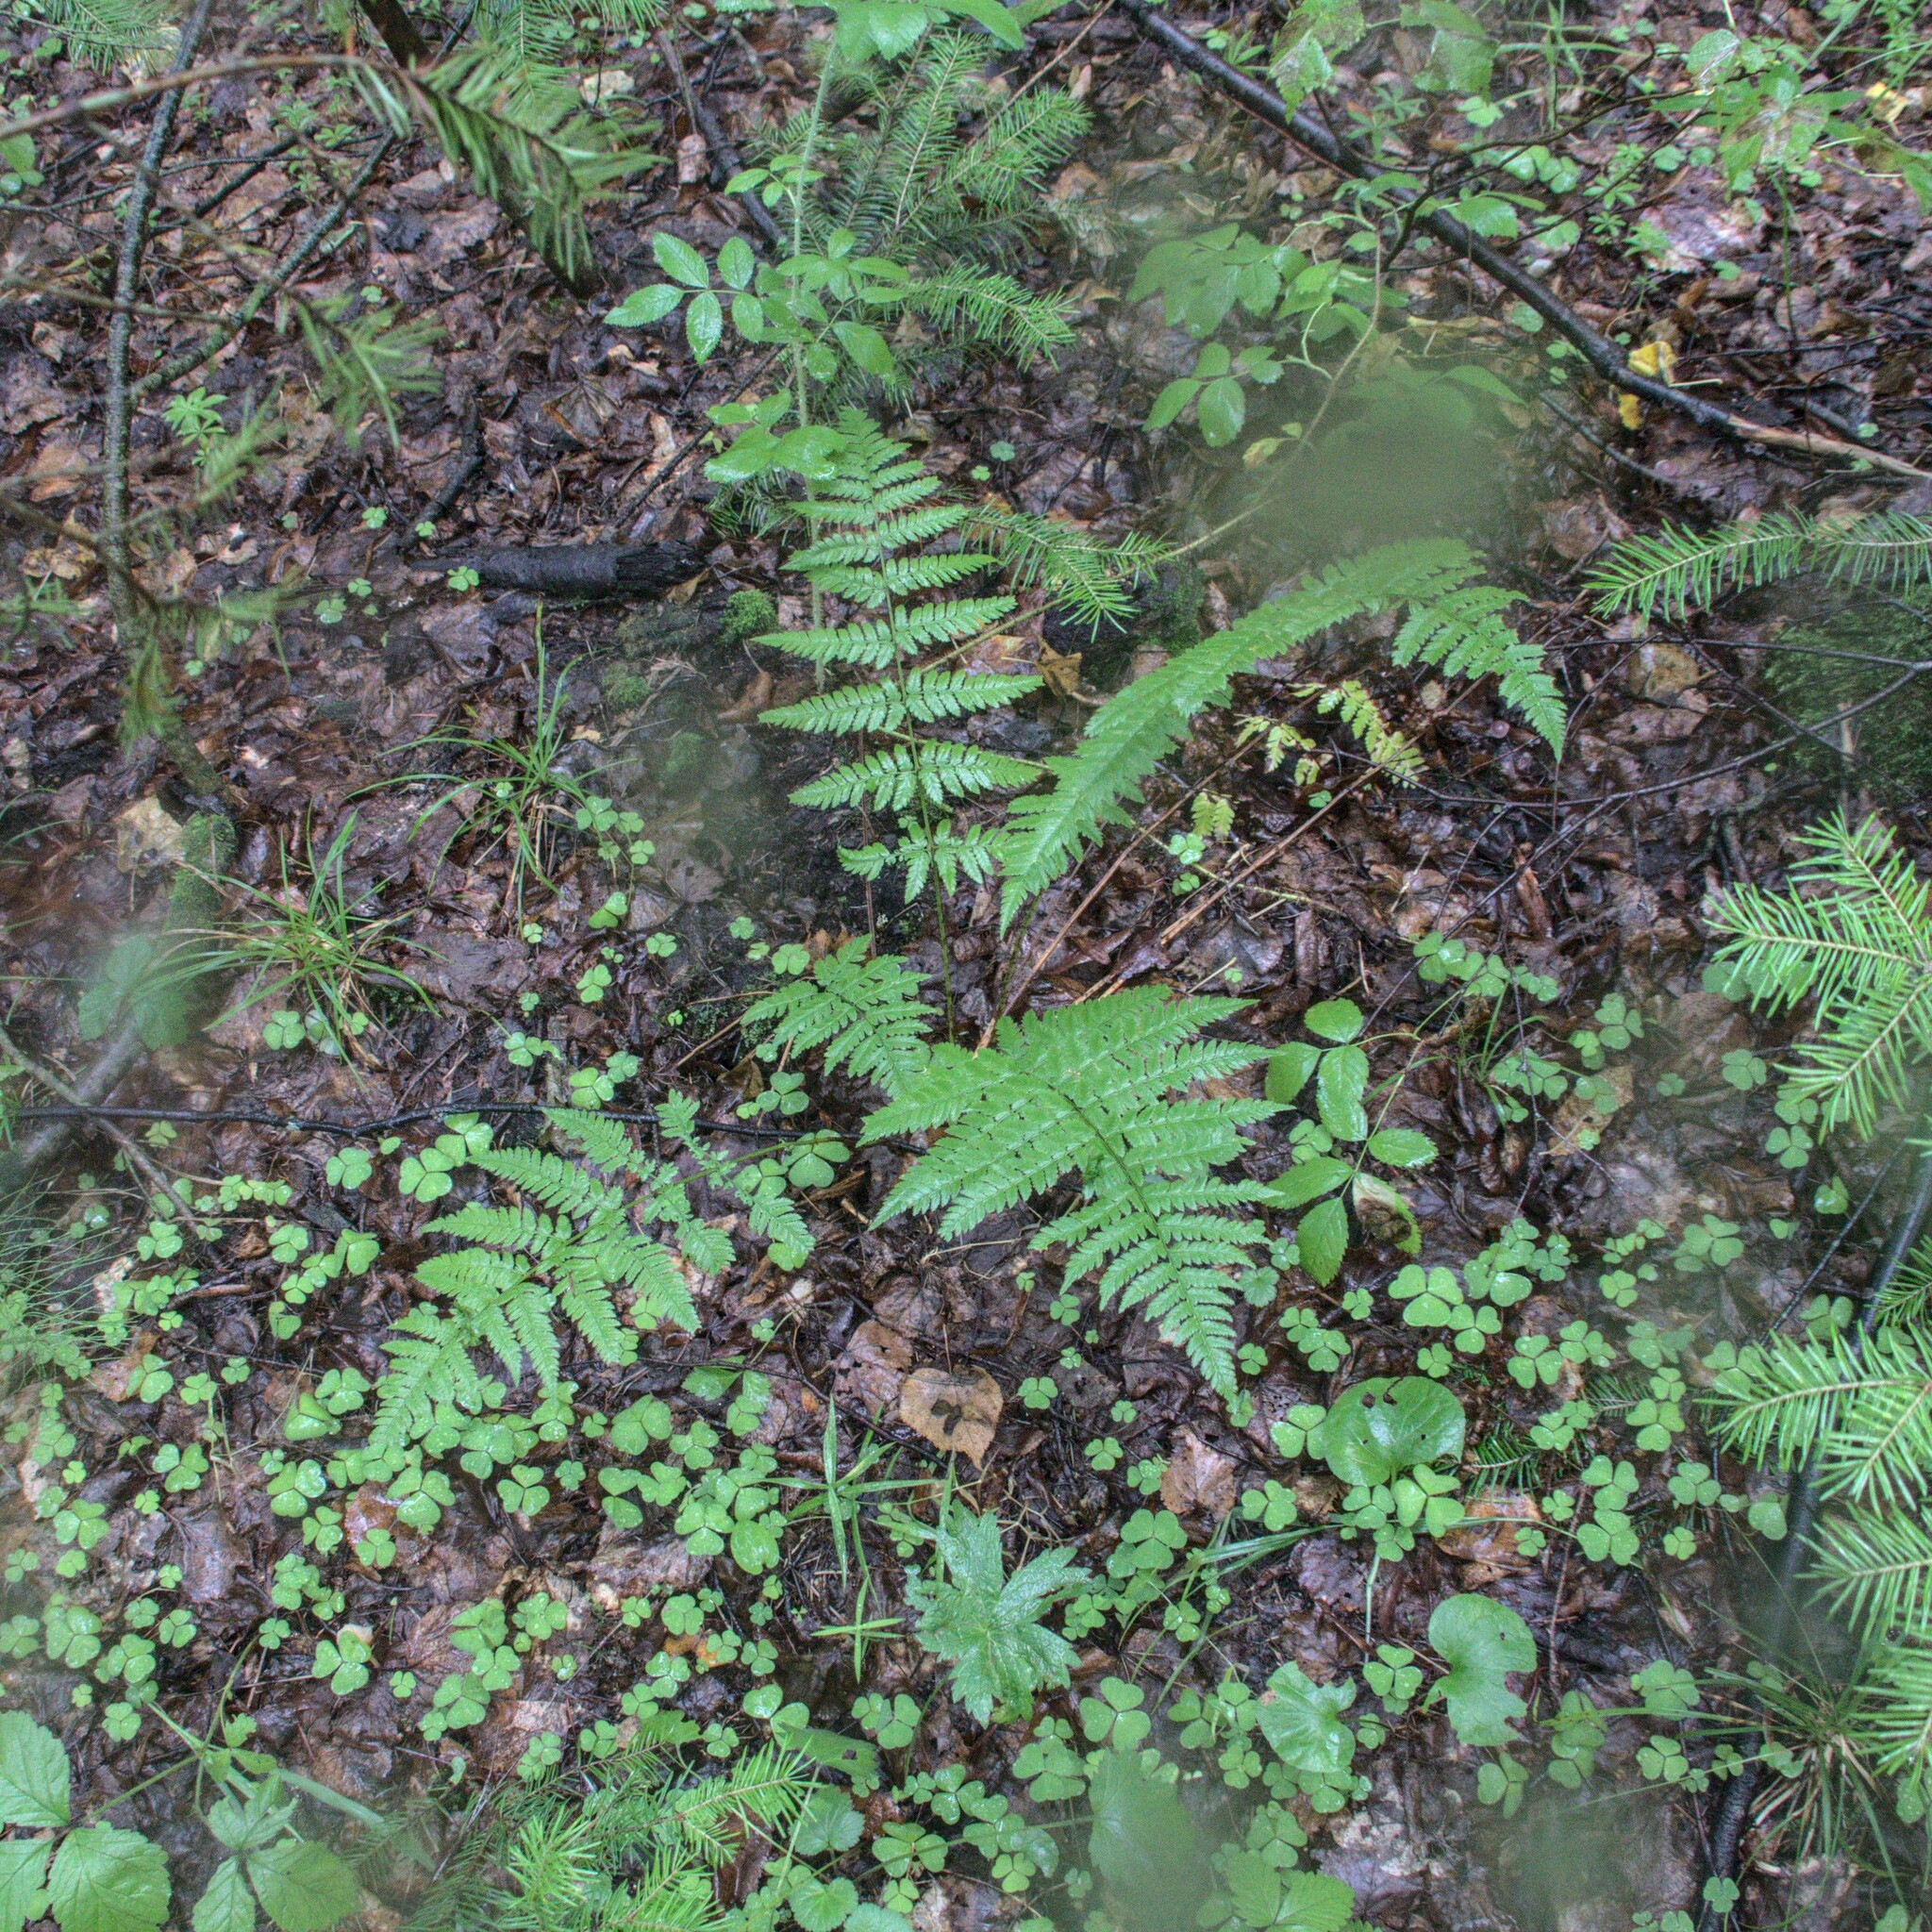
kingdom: Plantae
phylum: Tracheophyta
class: Polypodiopsida
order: Polypodiales
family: Dryopteridaceae
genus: Dryopteris
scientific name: Dryopteris carthusiana
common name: Narrow buckler-fern
